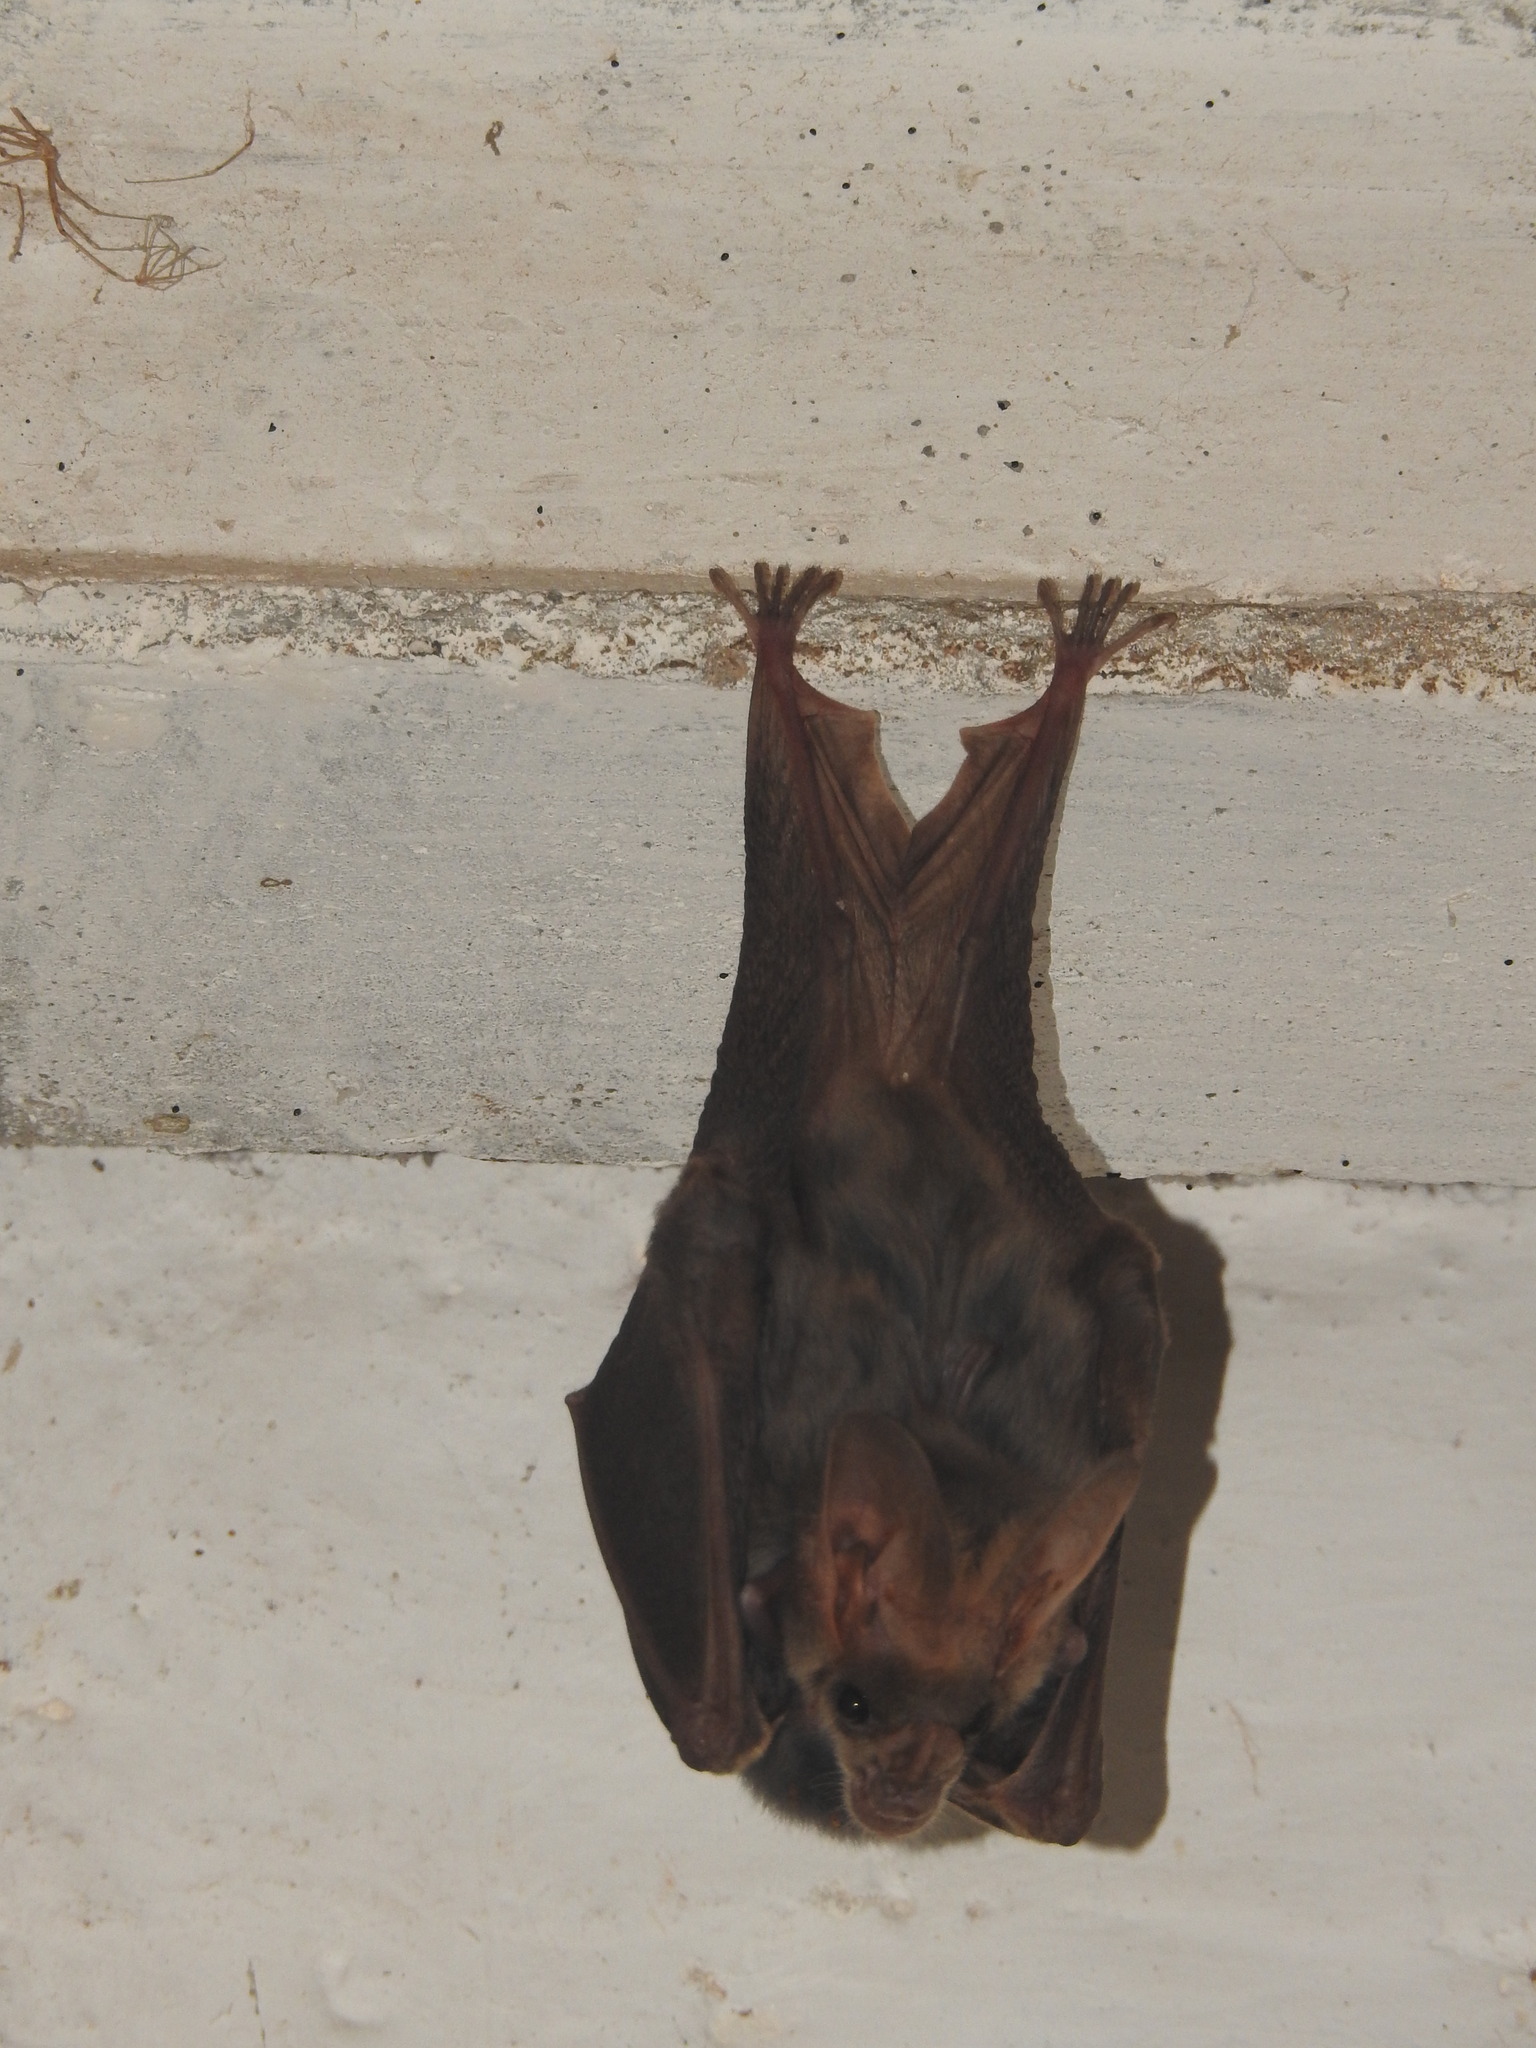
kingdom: Animalia
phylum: Chordata
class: Mammalia
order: Chiroptera
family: Megadermatidae
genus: Lyroderma
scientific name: Lyroderma lyra
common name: Greater false vampire bat
